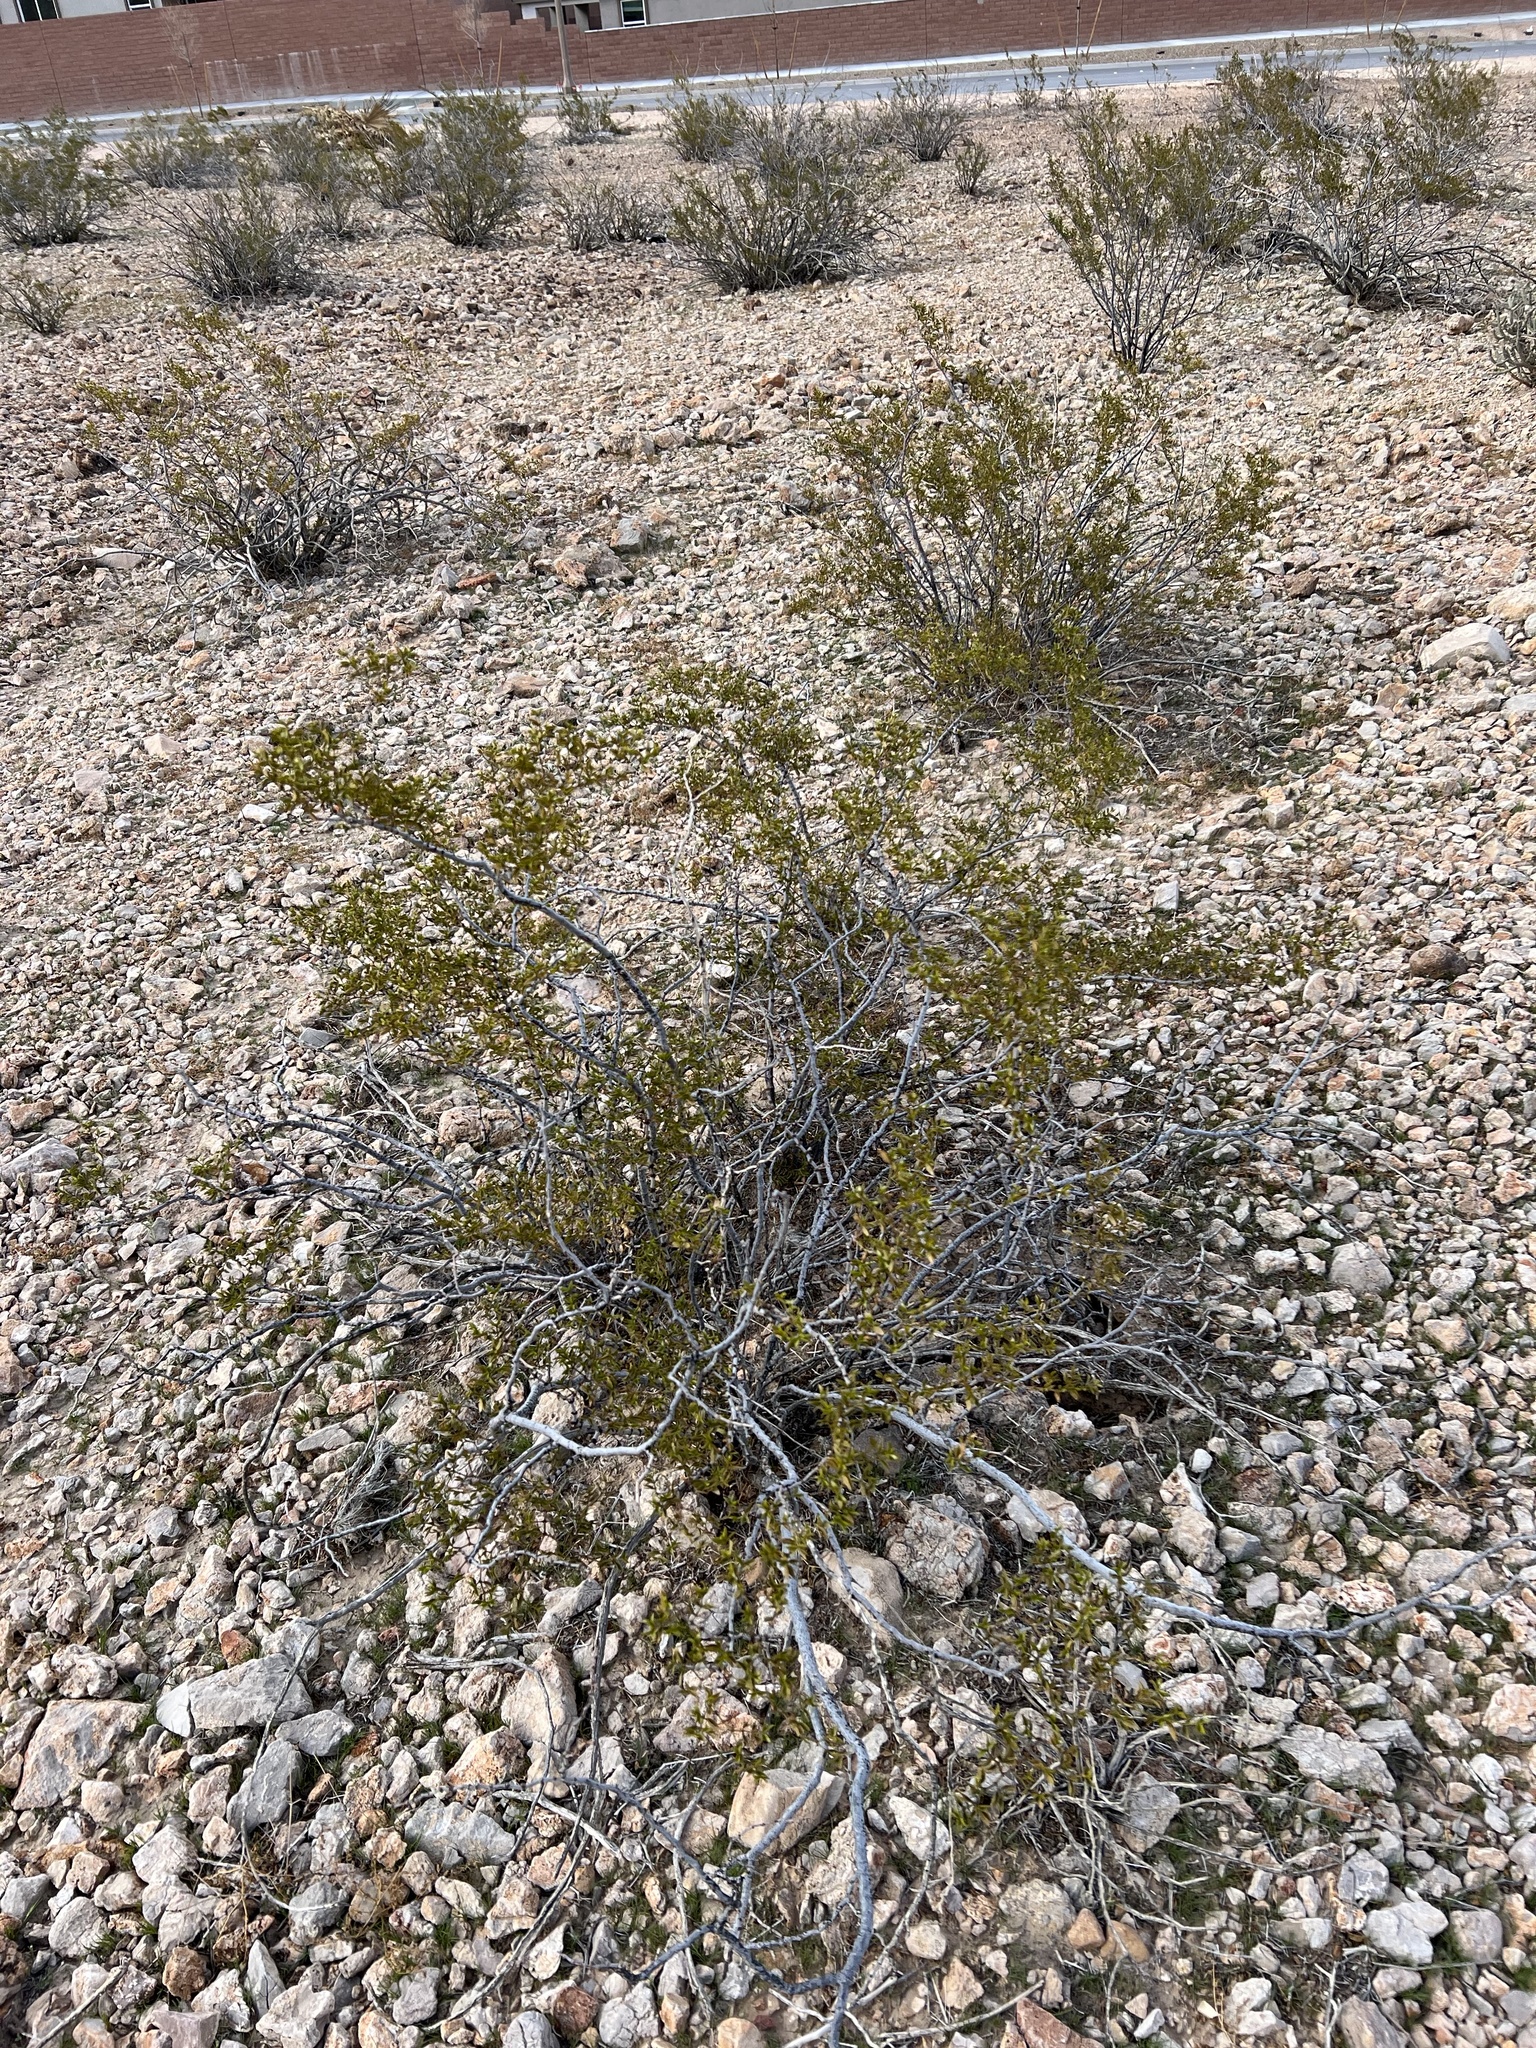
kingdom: Plantae
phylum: Tracheophyta
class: Magnoliopsida
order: Zygophyllales
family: Zygophyllaceae
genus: Larrea
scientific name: Larrea tridentata
